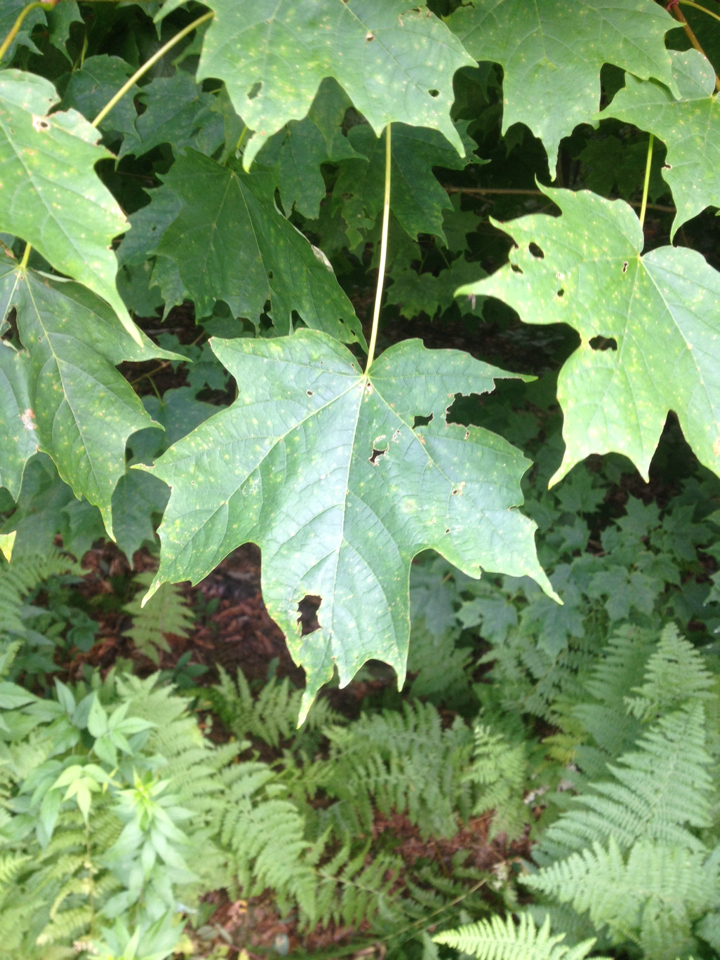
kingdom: Plantae
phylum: Tracheophyta
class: Magnoliopsida
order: Sapindales
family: Sapindaceae
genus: Acer
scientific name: Acer saccharum
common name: Sugar maple
